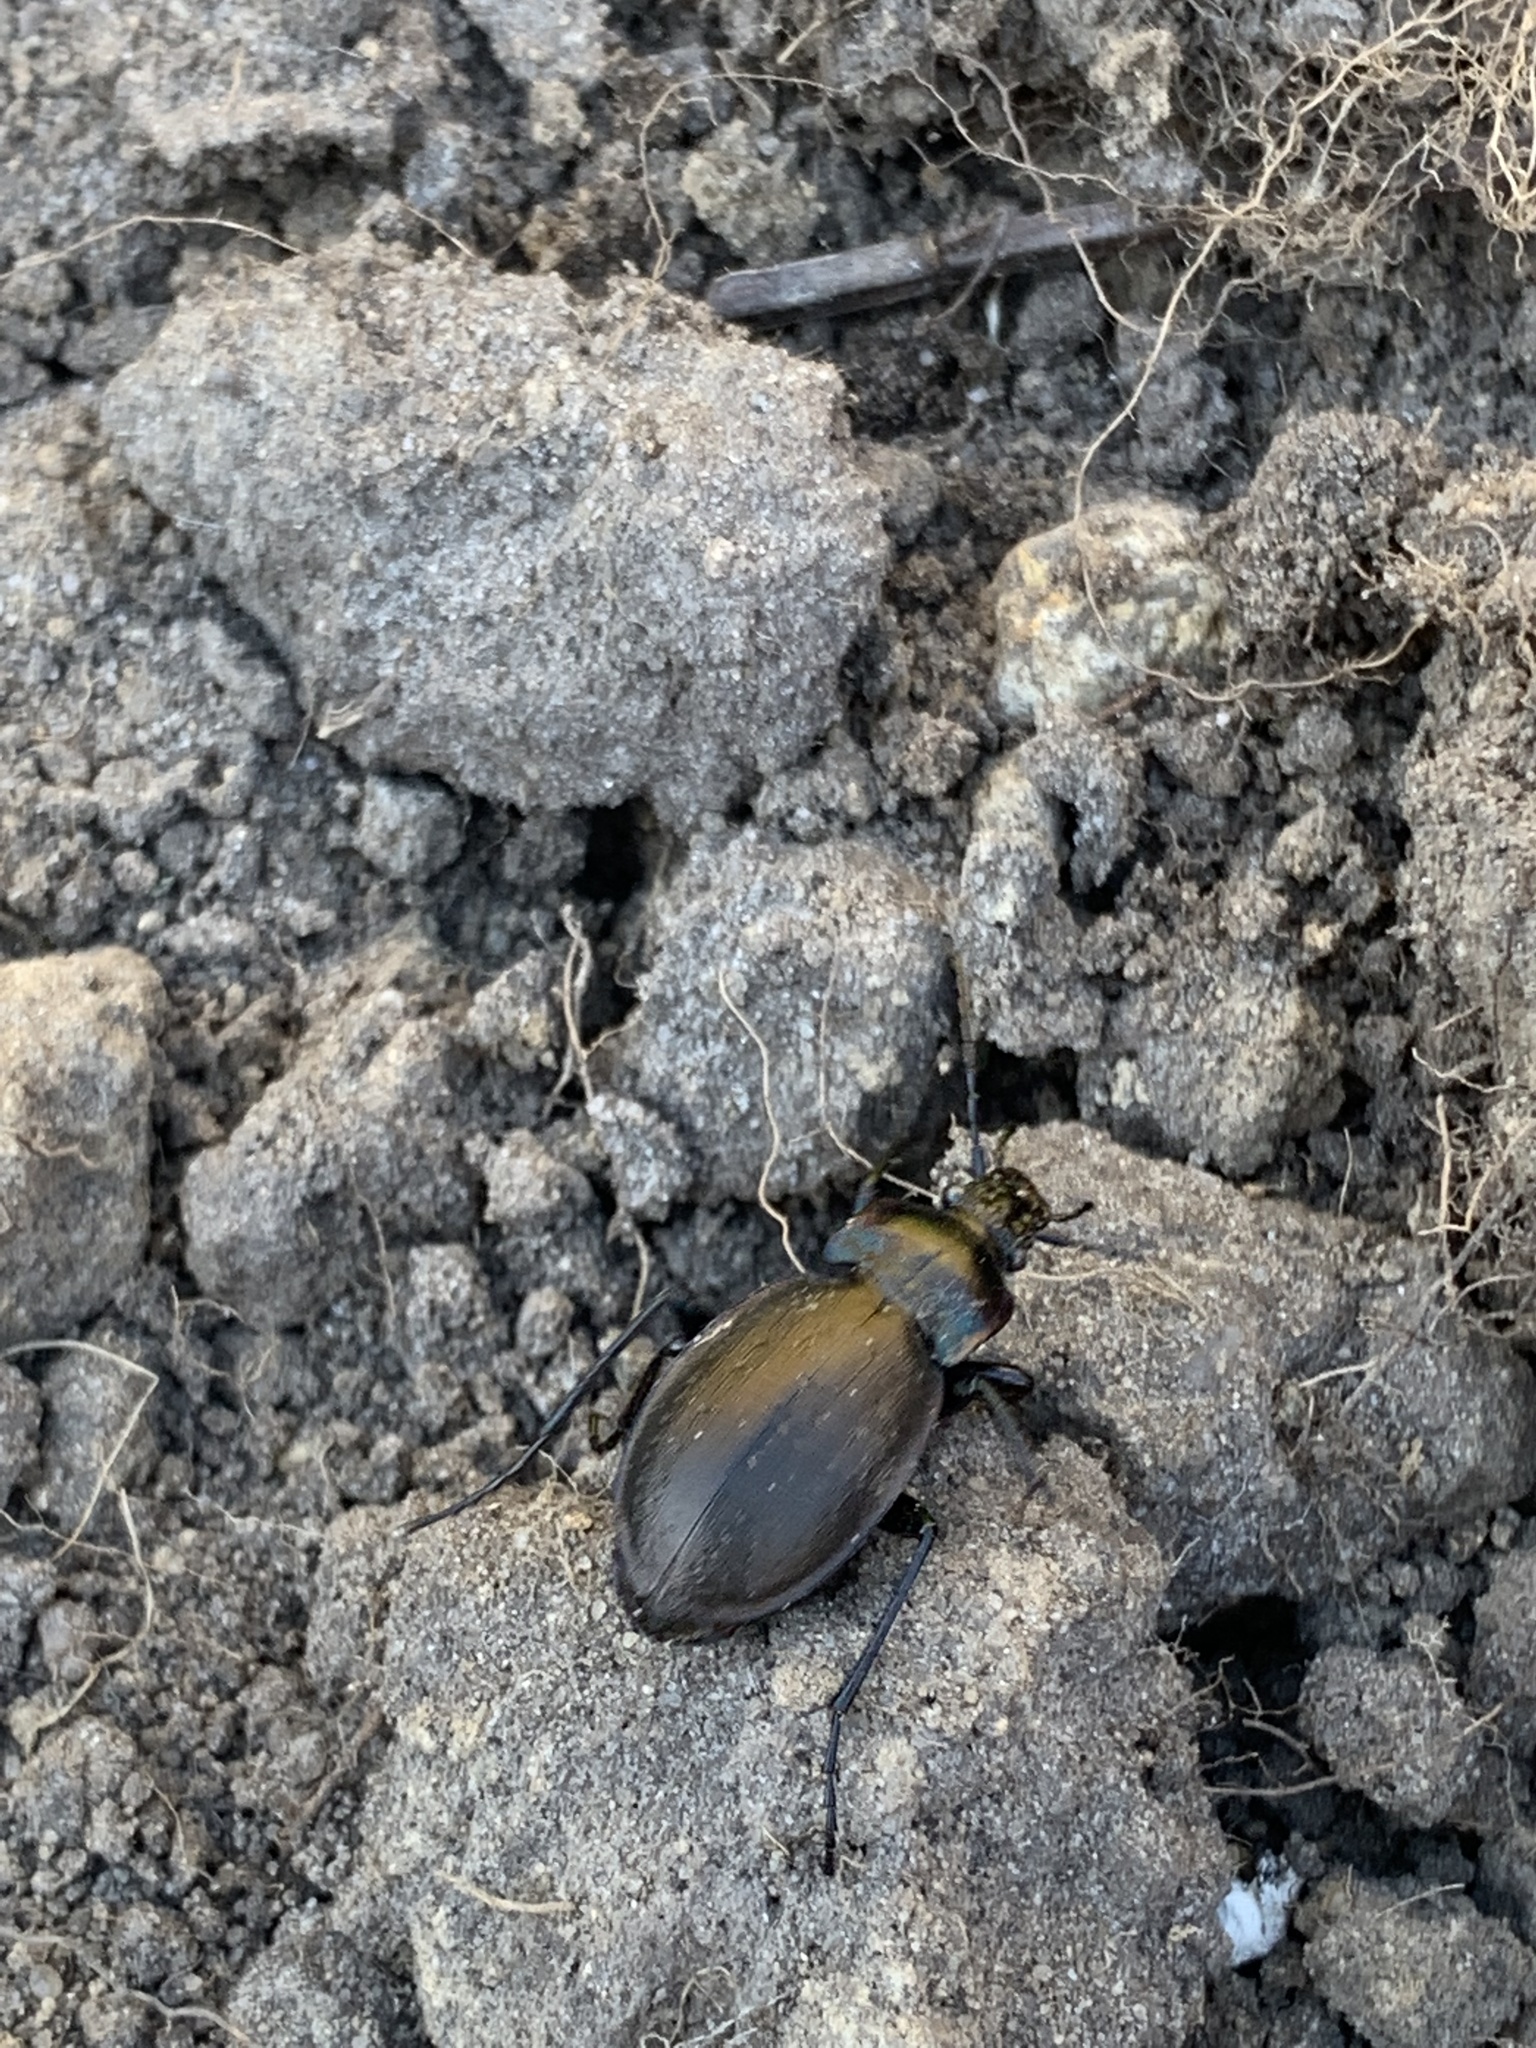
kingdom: Animalia
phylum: Arthropoda
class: Insecta
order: Coleoptera
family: Carabidae
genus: Carabus
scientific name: Carabus nemoralis
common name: European ground beetle
